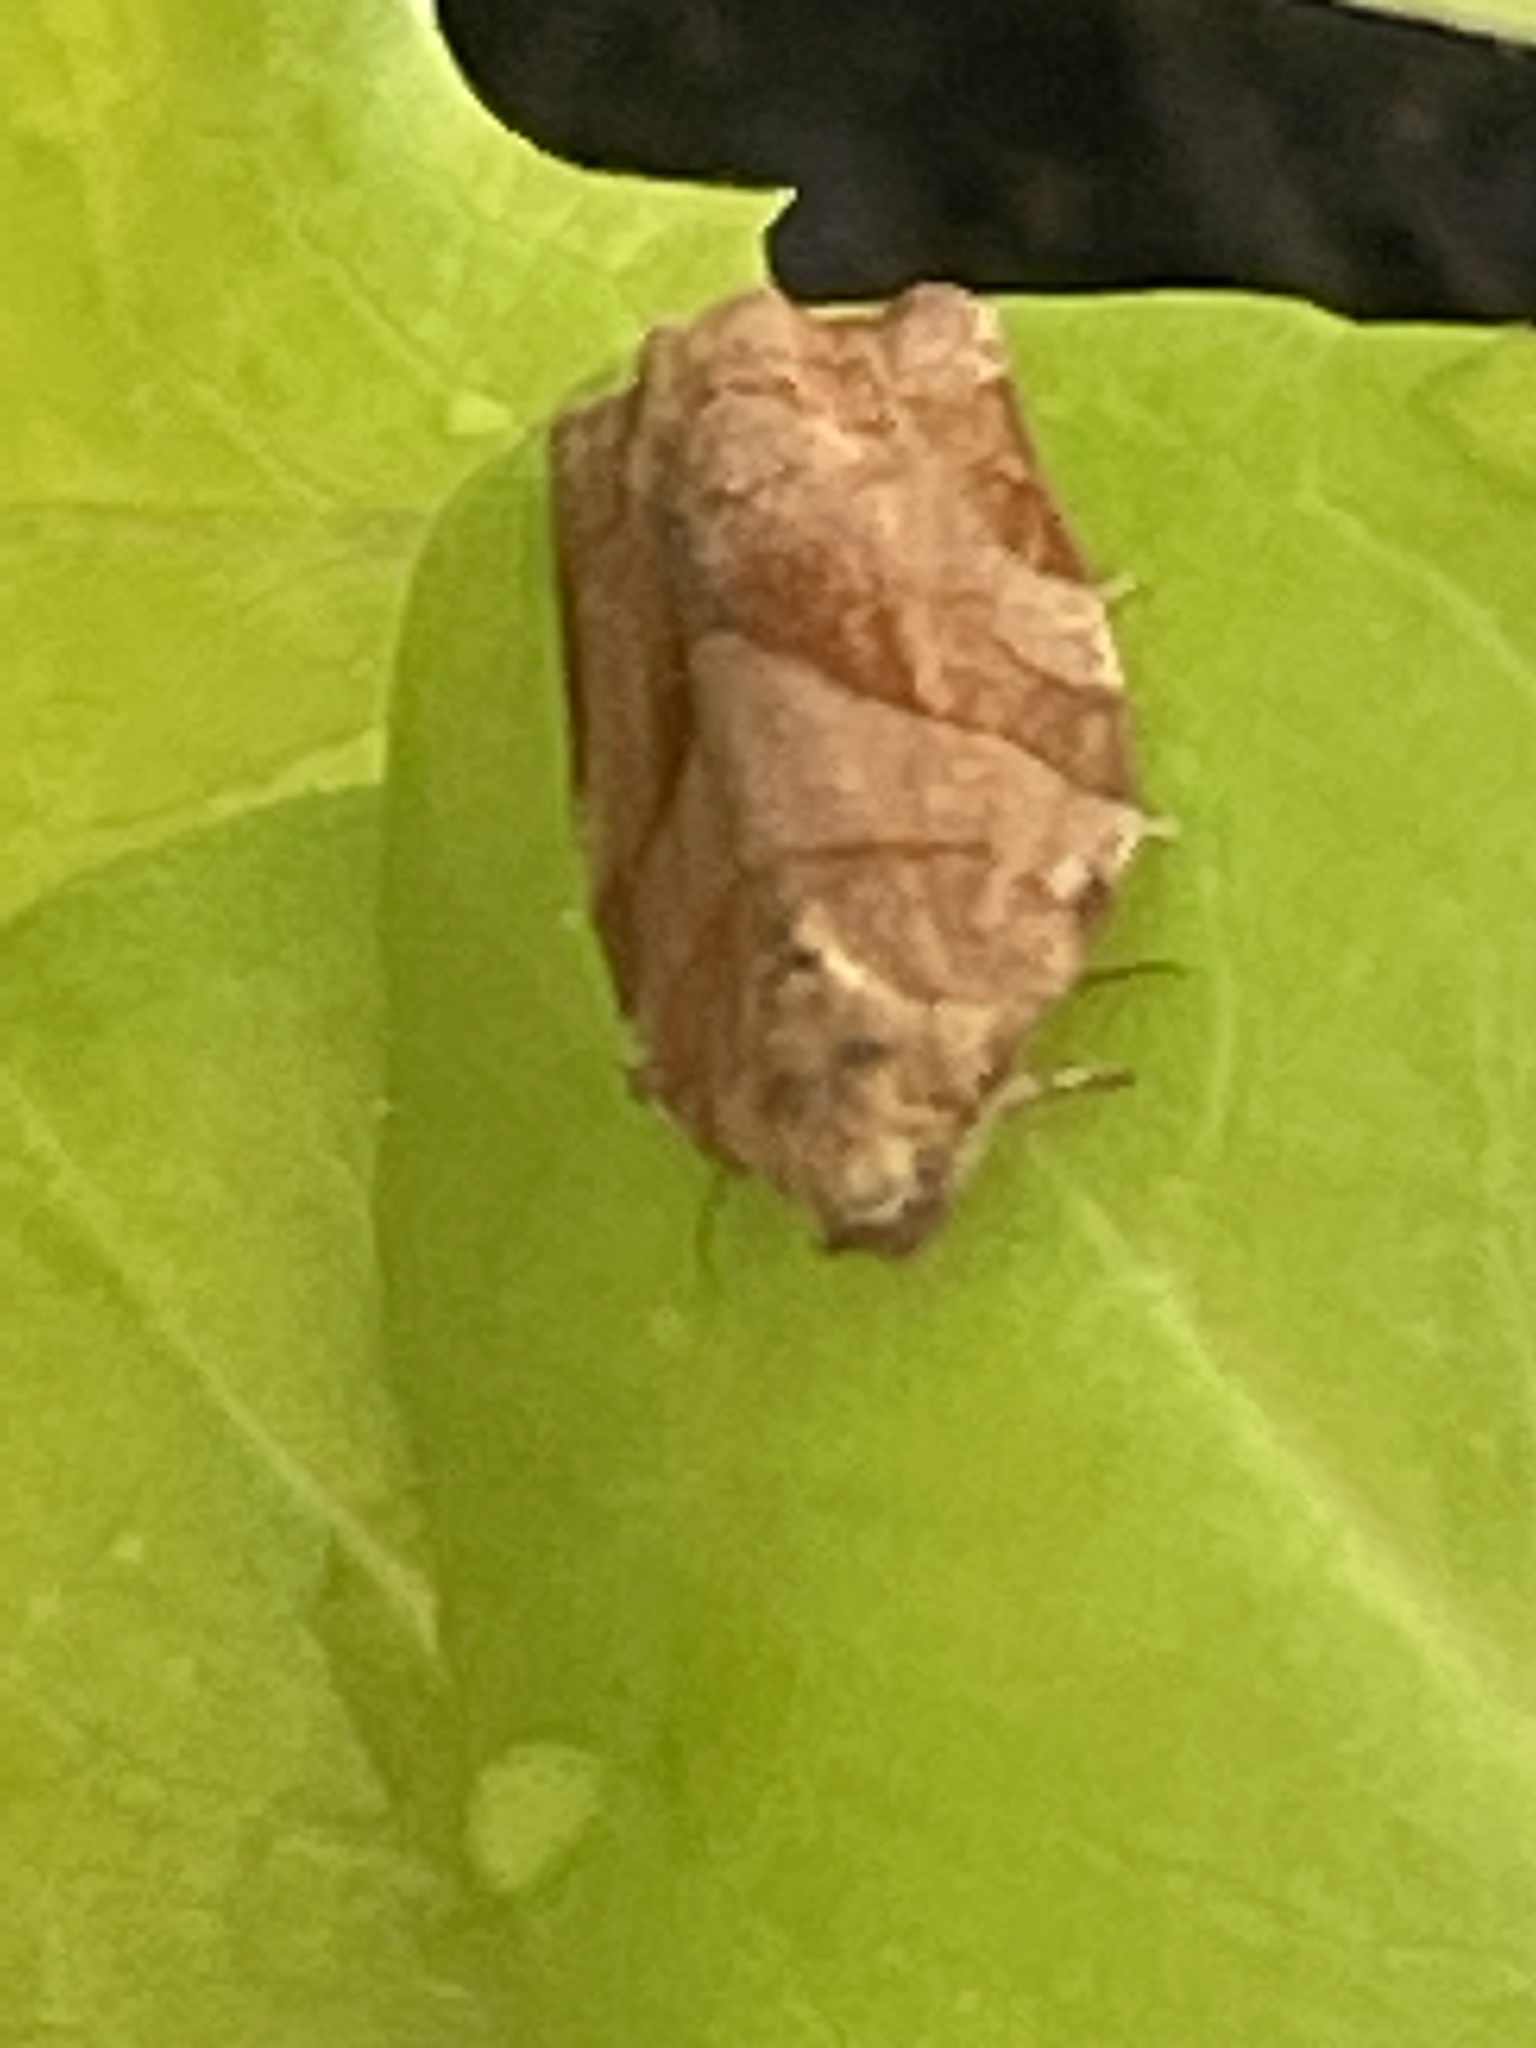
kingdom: Animalia
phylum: Arthropoda
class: Insecta
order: Lepidoptera
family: Tortricidae
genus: Choristoneura
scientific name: Choristoneura rosaceana
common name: Oblique-banded leafroller moth
